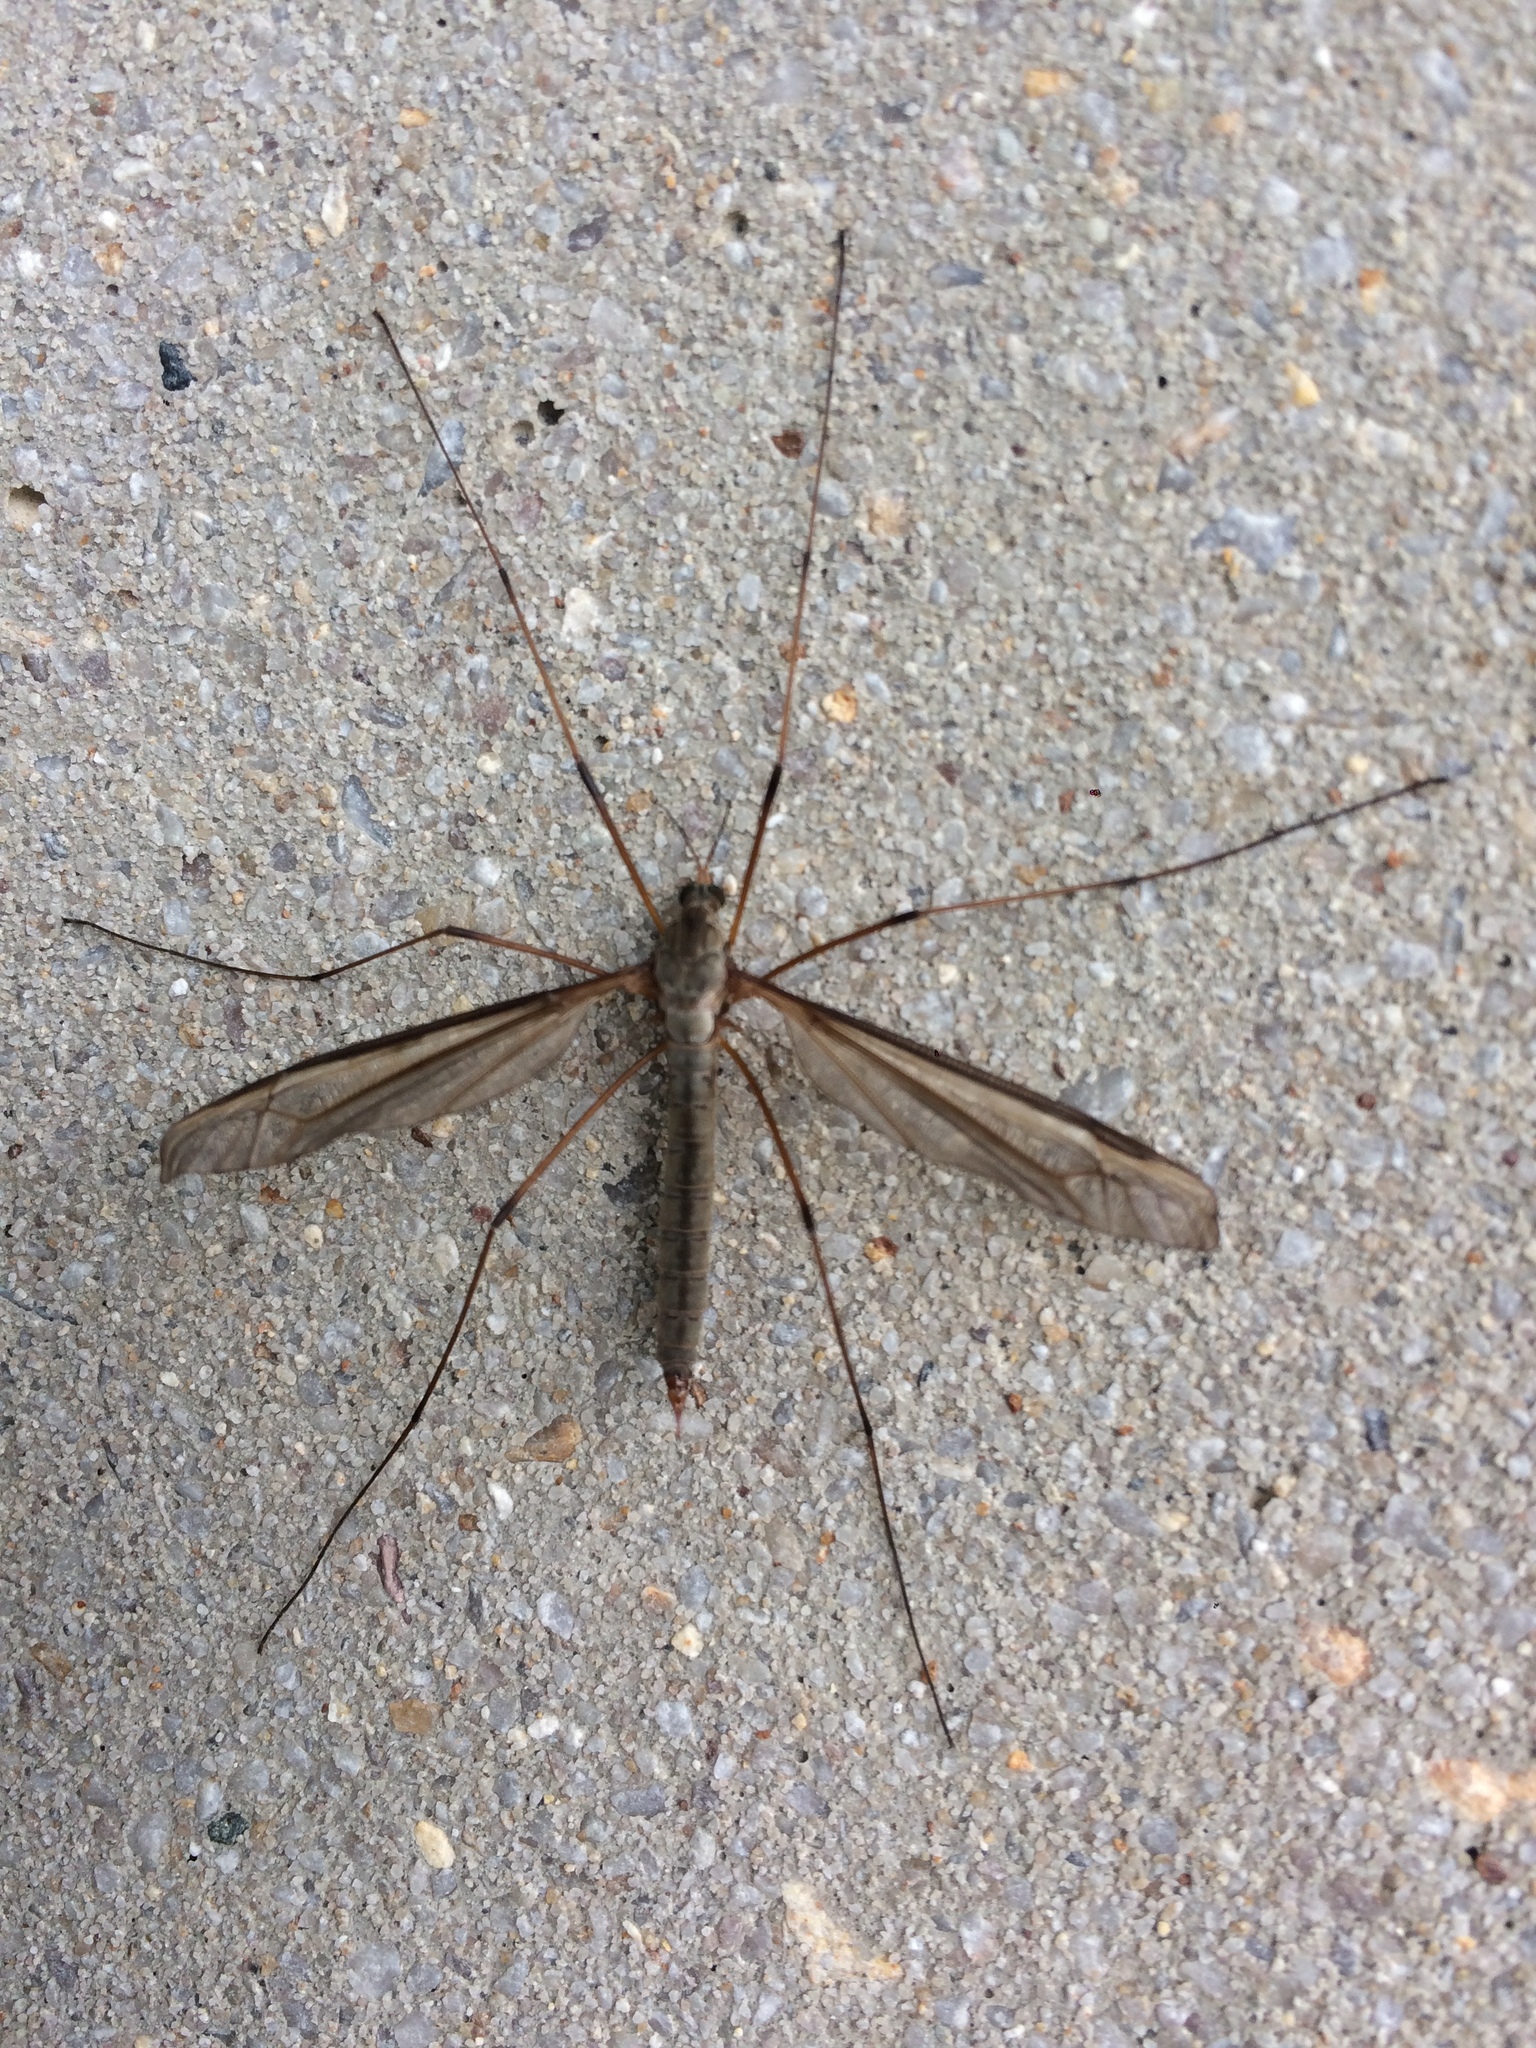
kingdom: Animalia
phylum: Arthropoda
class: Insecta
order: Diptera
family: Tipulidae
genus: Tipula
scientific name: Tipula oleracea
